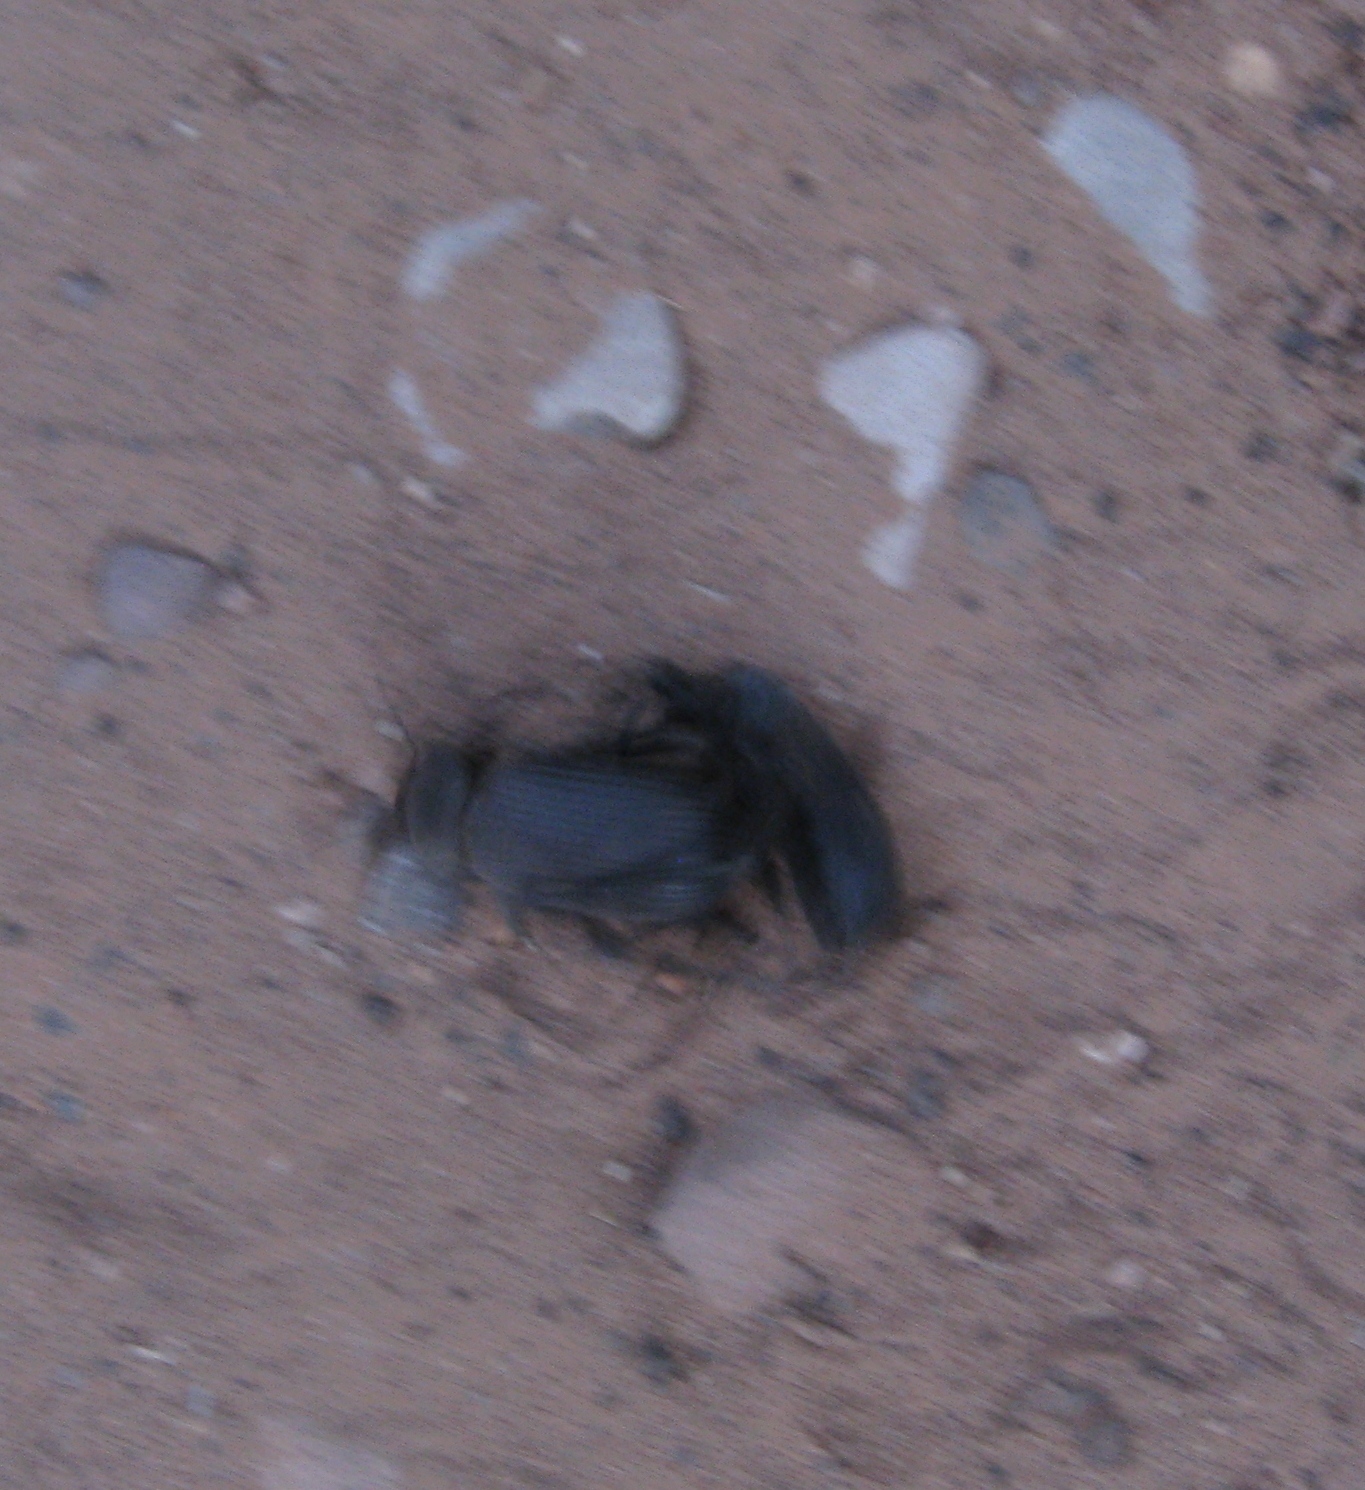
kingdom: Animalia
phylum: Arthropoda
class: Insecta
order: Coleoptera
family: Tenebrionidae
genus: Eleodes
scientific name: Eleodes obscura
